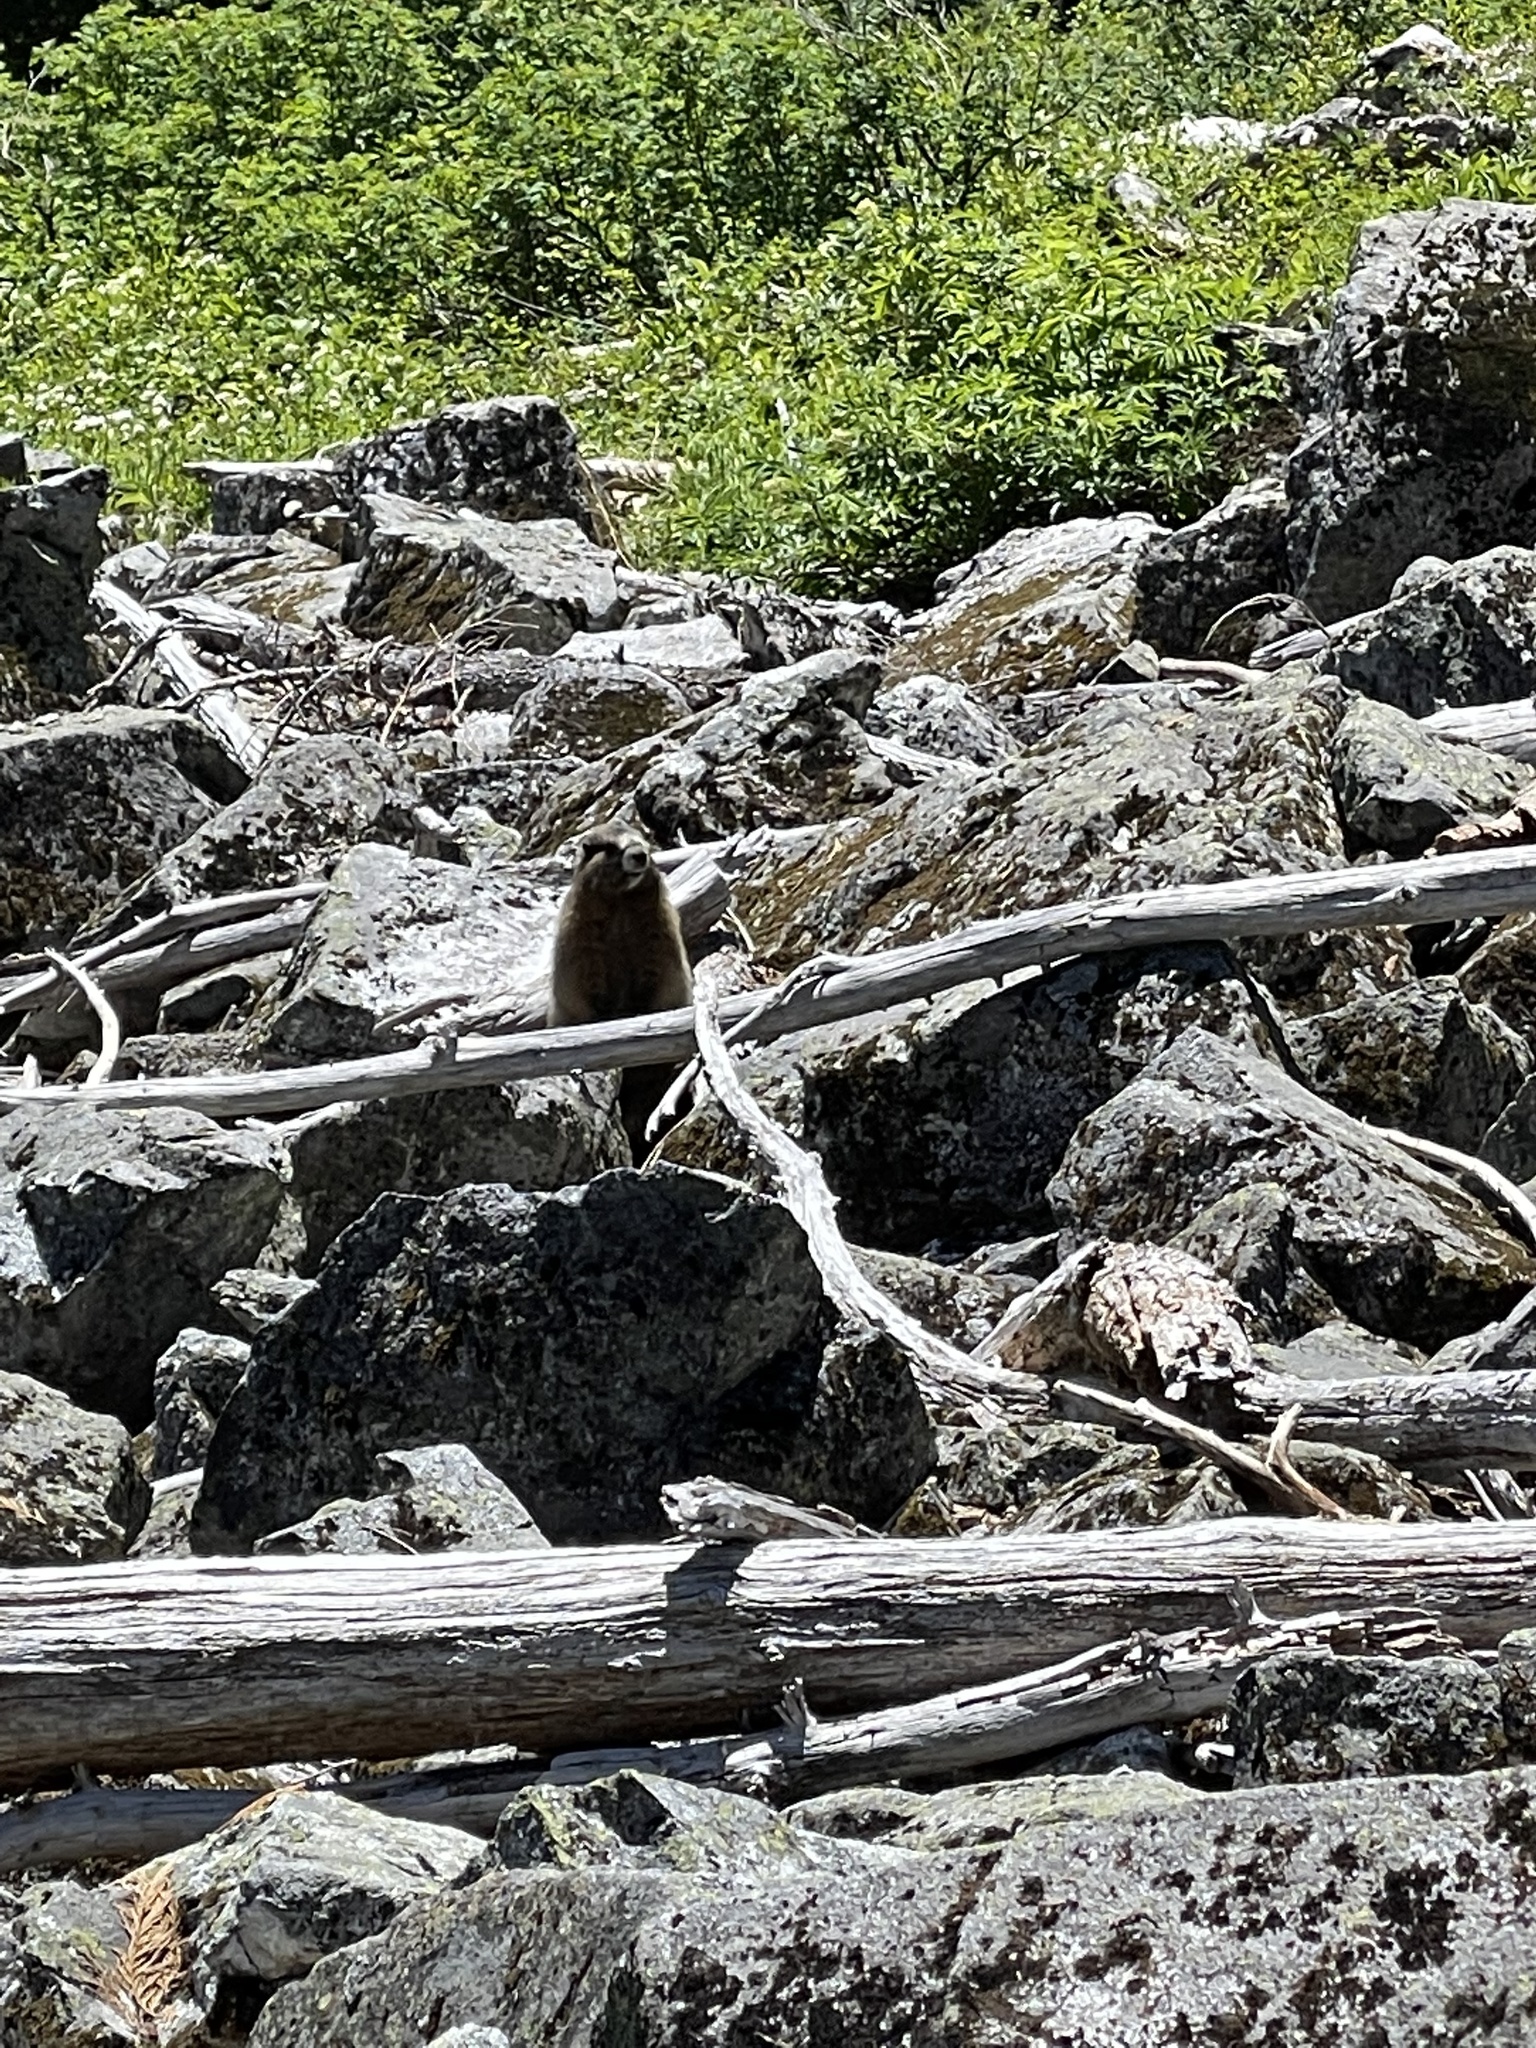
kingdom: Animalia
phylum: Chordata
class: Mammalia
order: Rodentia
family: Sciuridae
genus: Marmota
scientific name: Marmota caligata
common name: Hoary marmot
